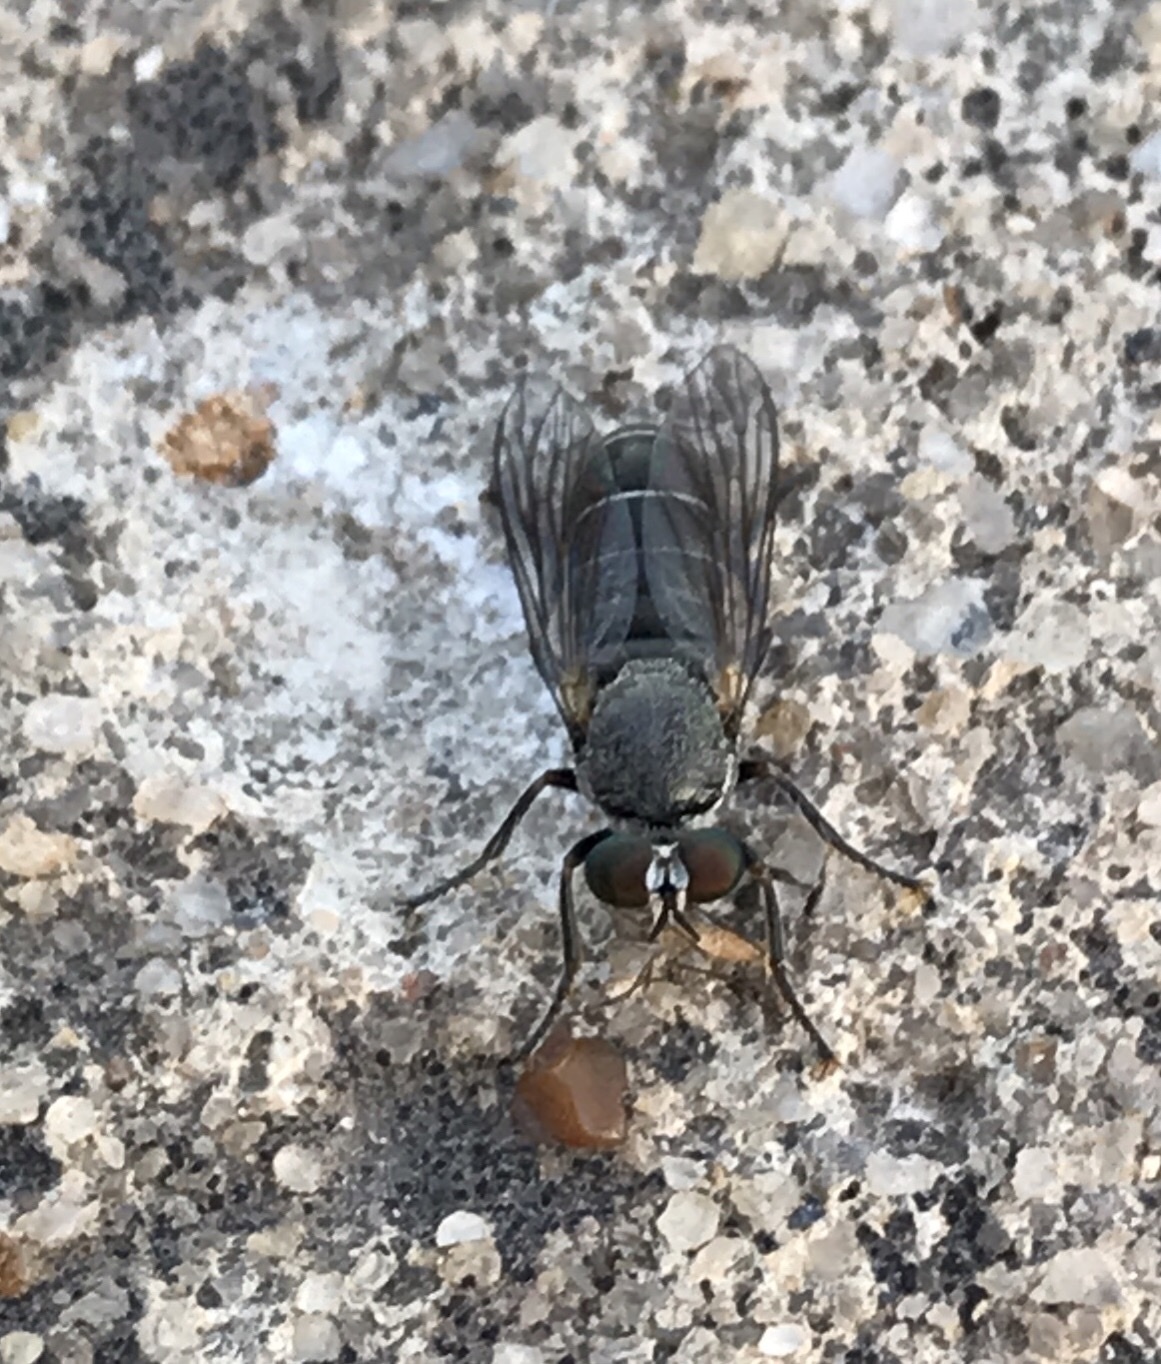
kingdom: Animalia
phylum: Arthropoda
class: Insecta
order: Diptera
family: Asilidae
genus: Atomosia
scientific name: Atomosia melanopogon
